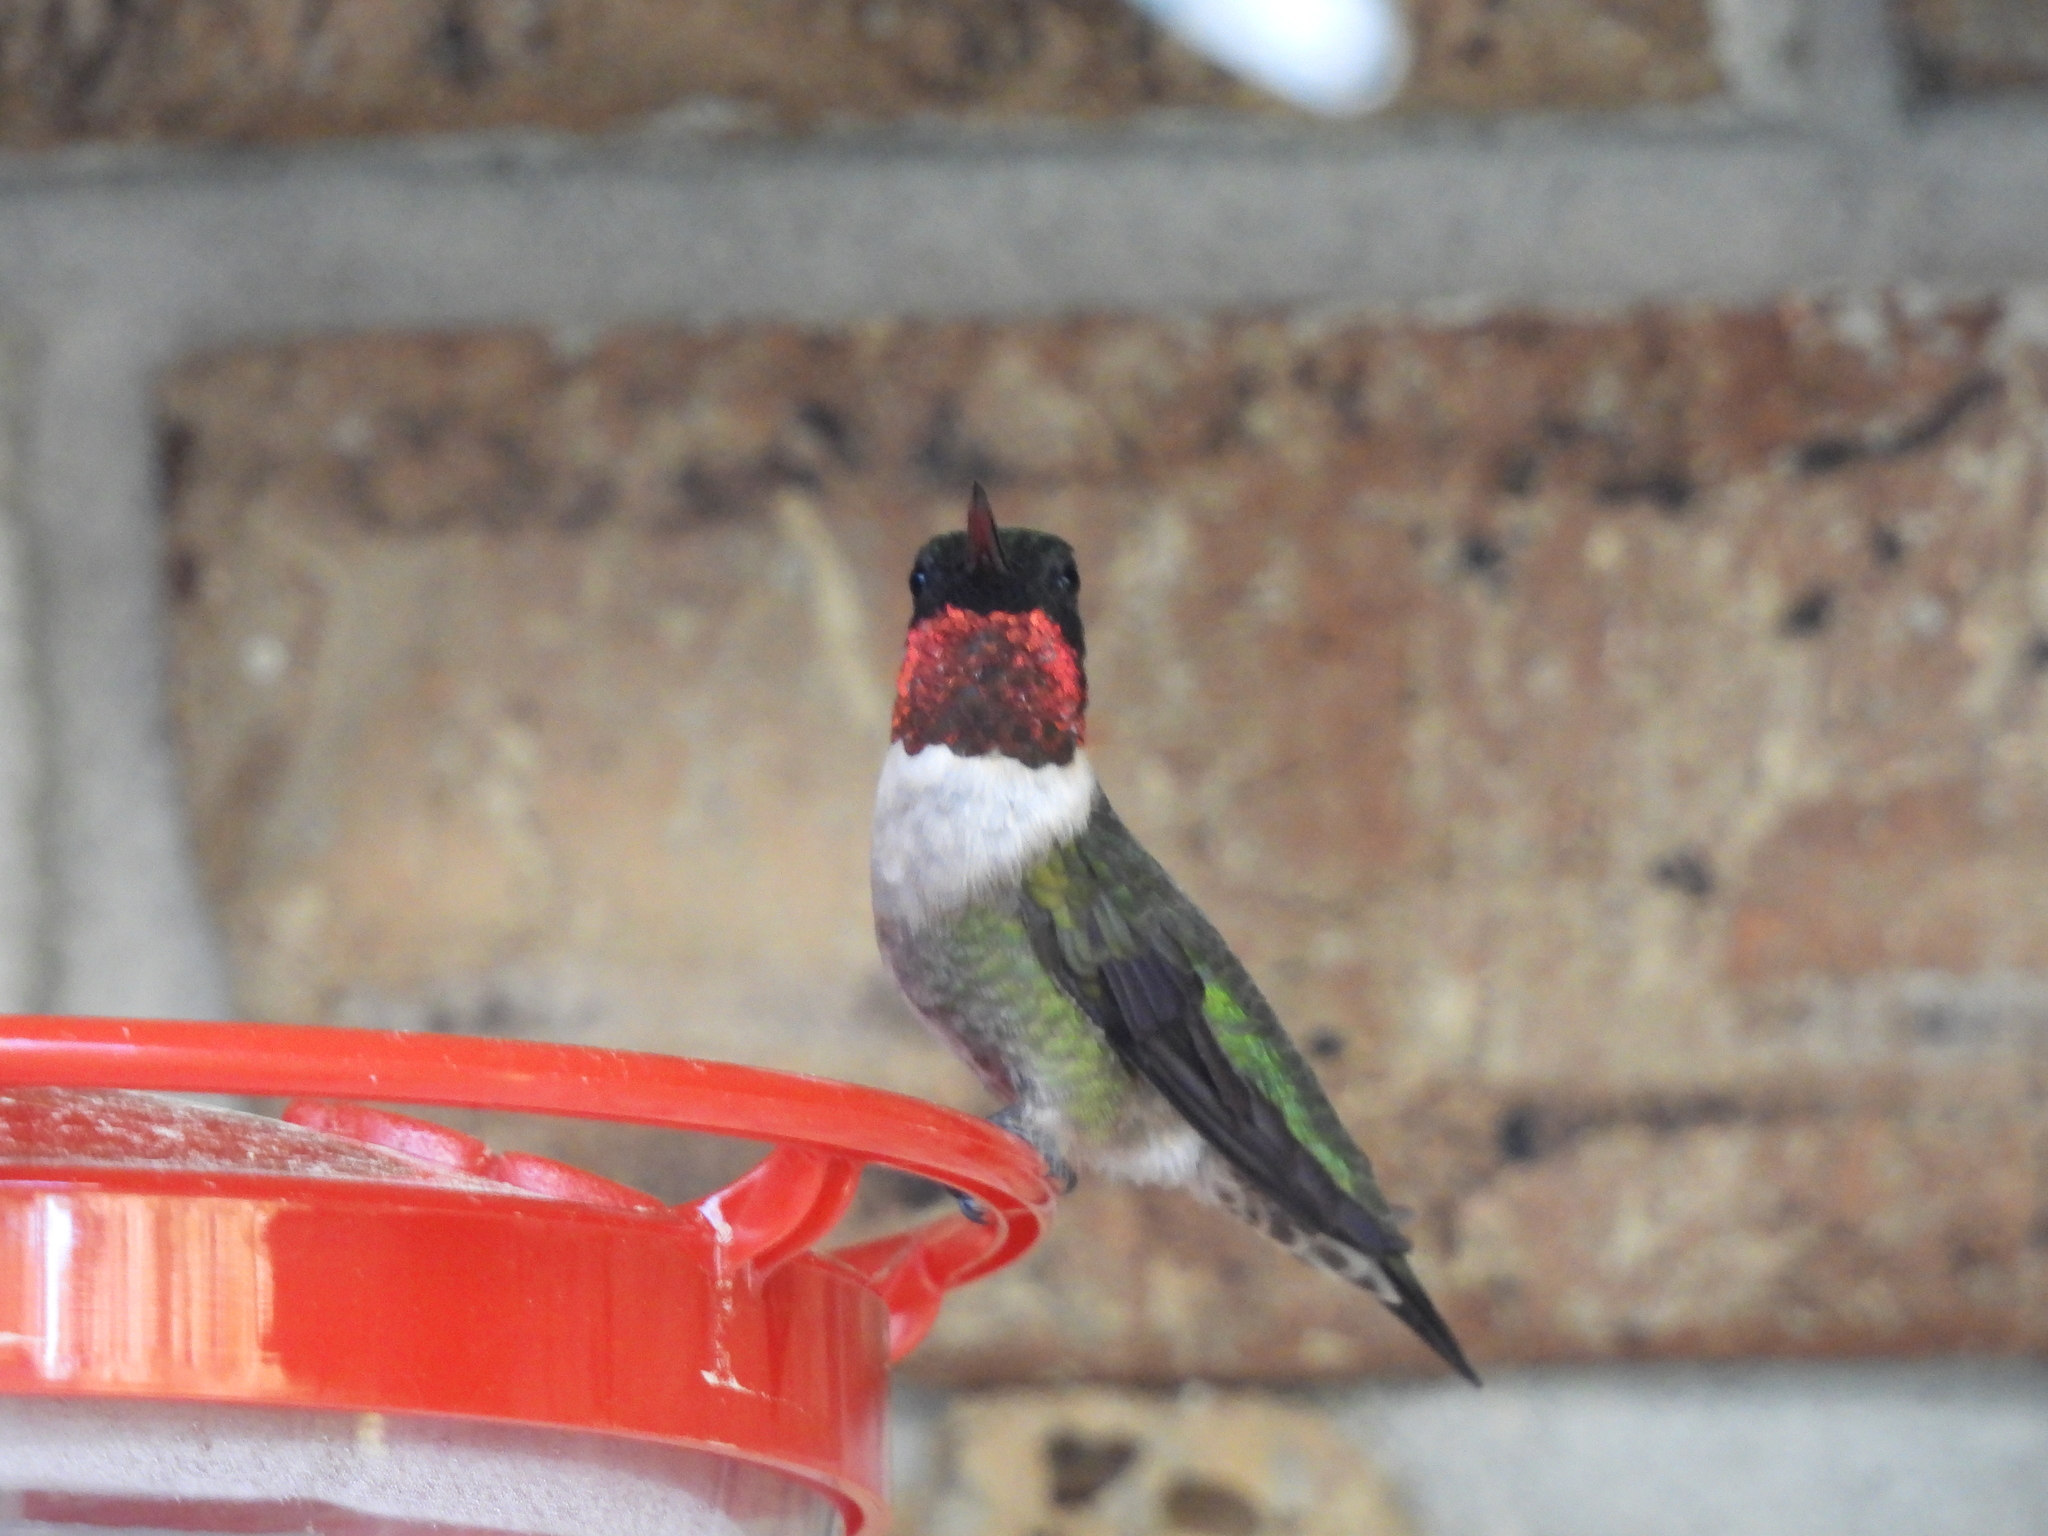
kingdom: Animalia
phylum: Chordata
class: Aves
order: Apodiformes
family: Trochilidae
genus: Archilochus
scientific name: Archilochus colubris
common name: Ruby-throated hummingbird
